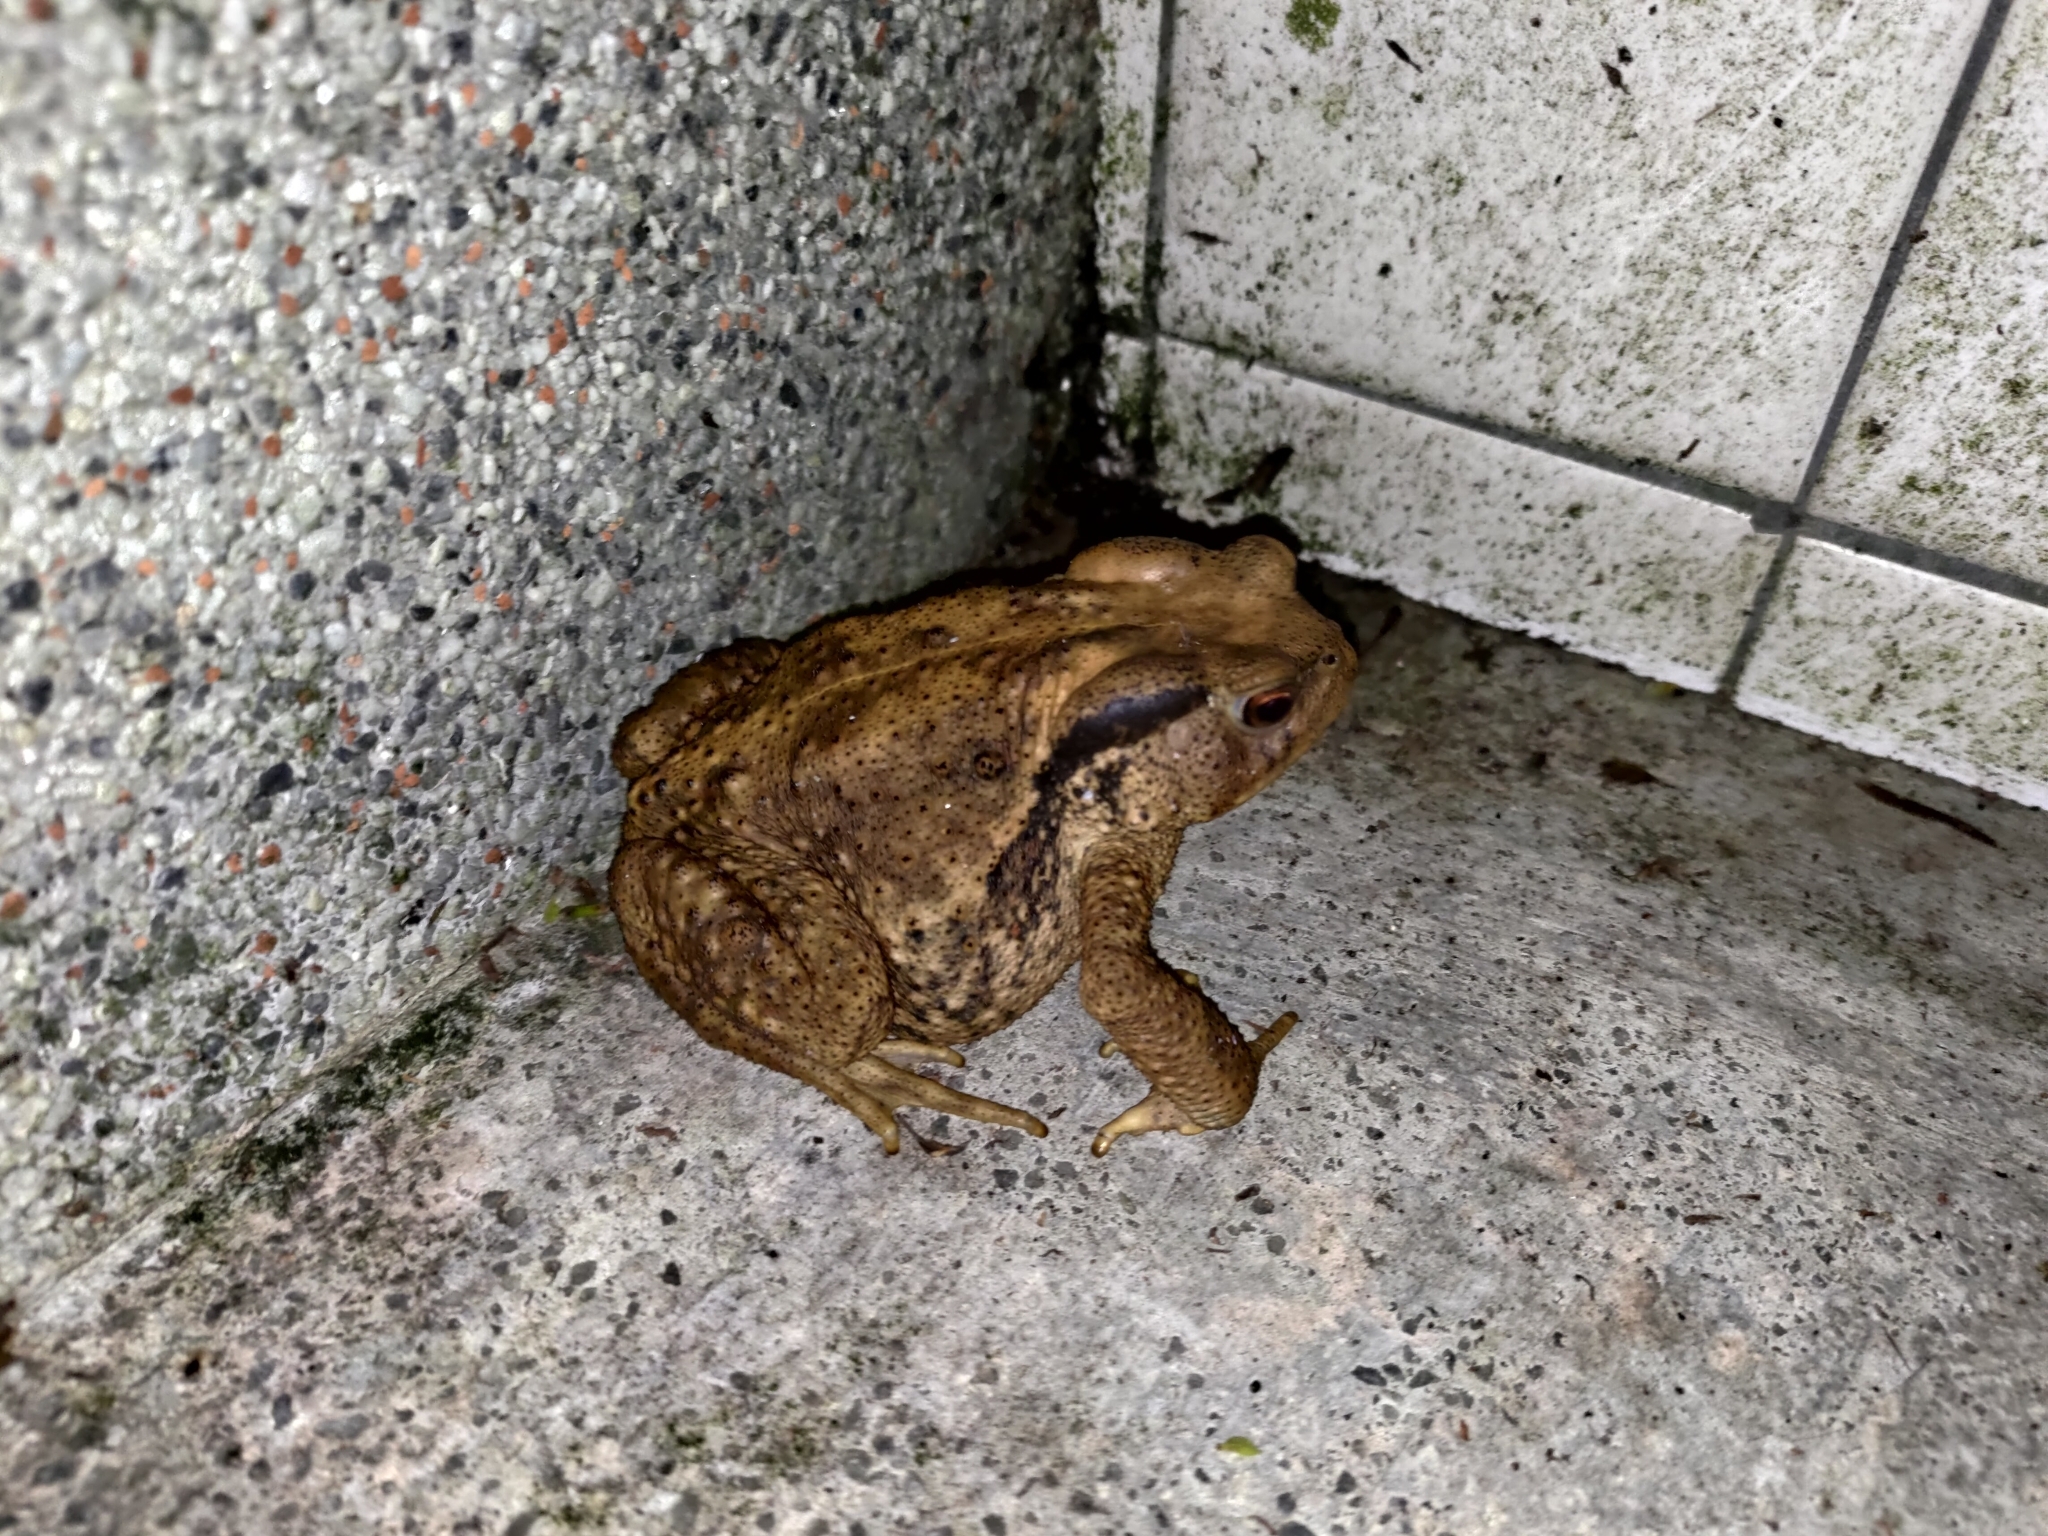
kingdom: Animalia
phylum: Chordata
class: Amphibia
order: Anura
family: Bufonidae
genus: Bufo
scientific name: Bufo bankorensis
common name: Bankor toad
